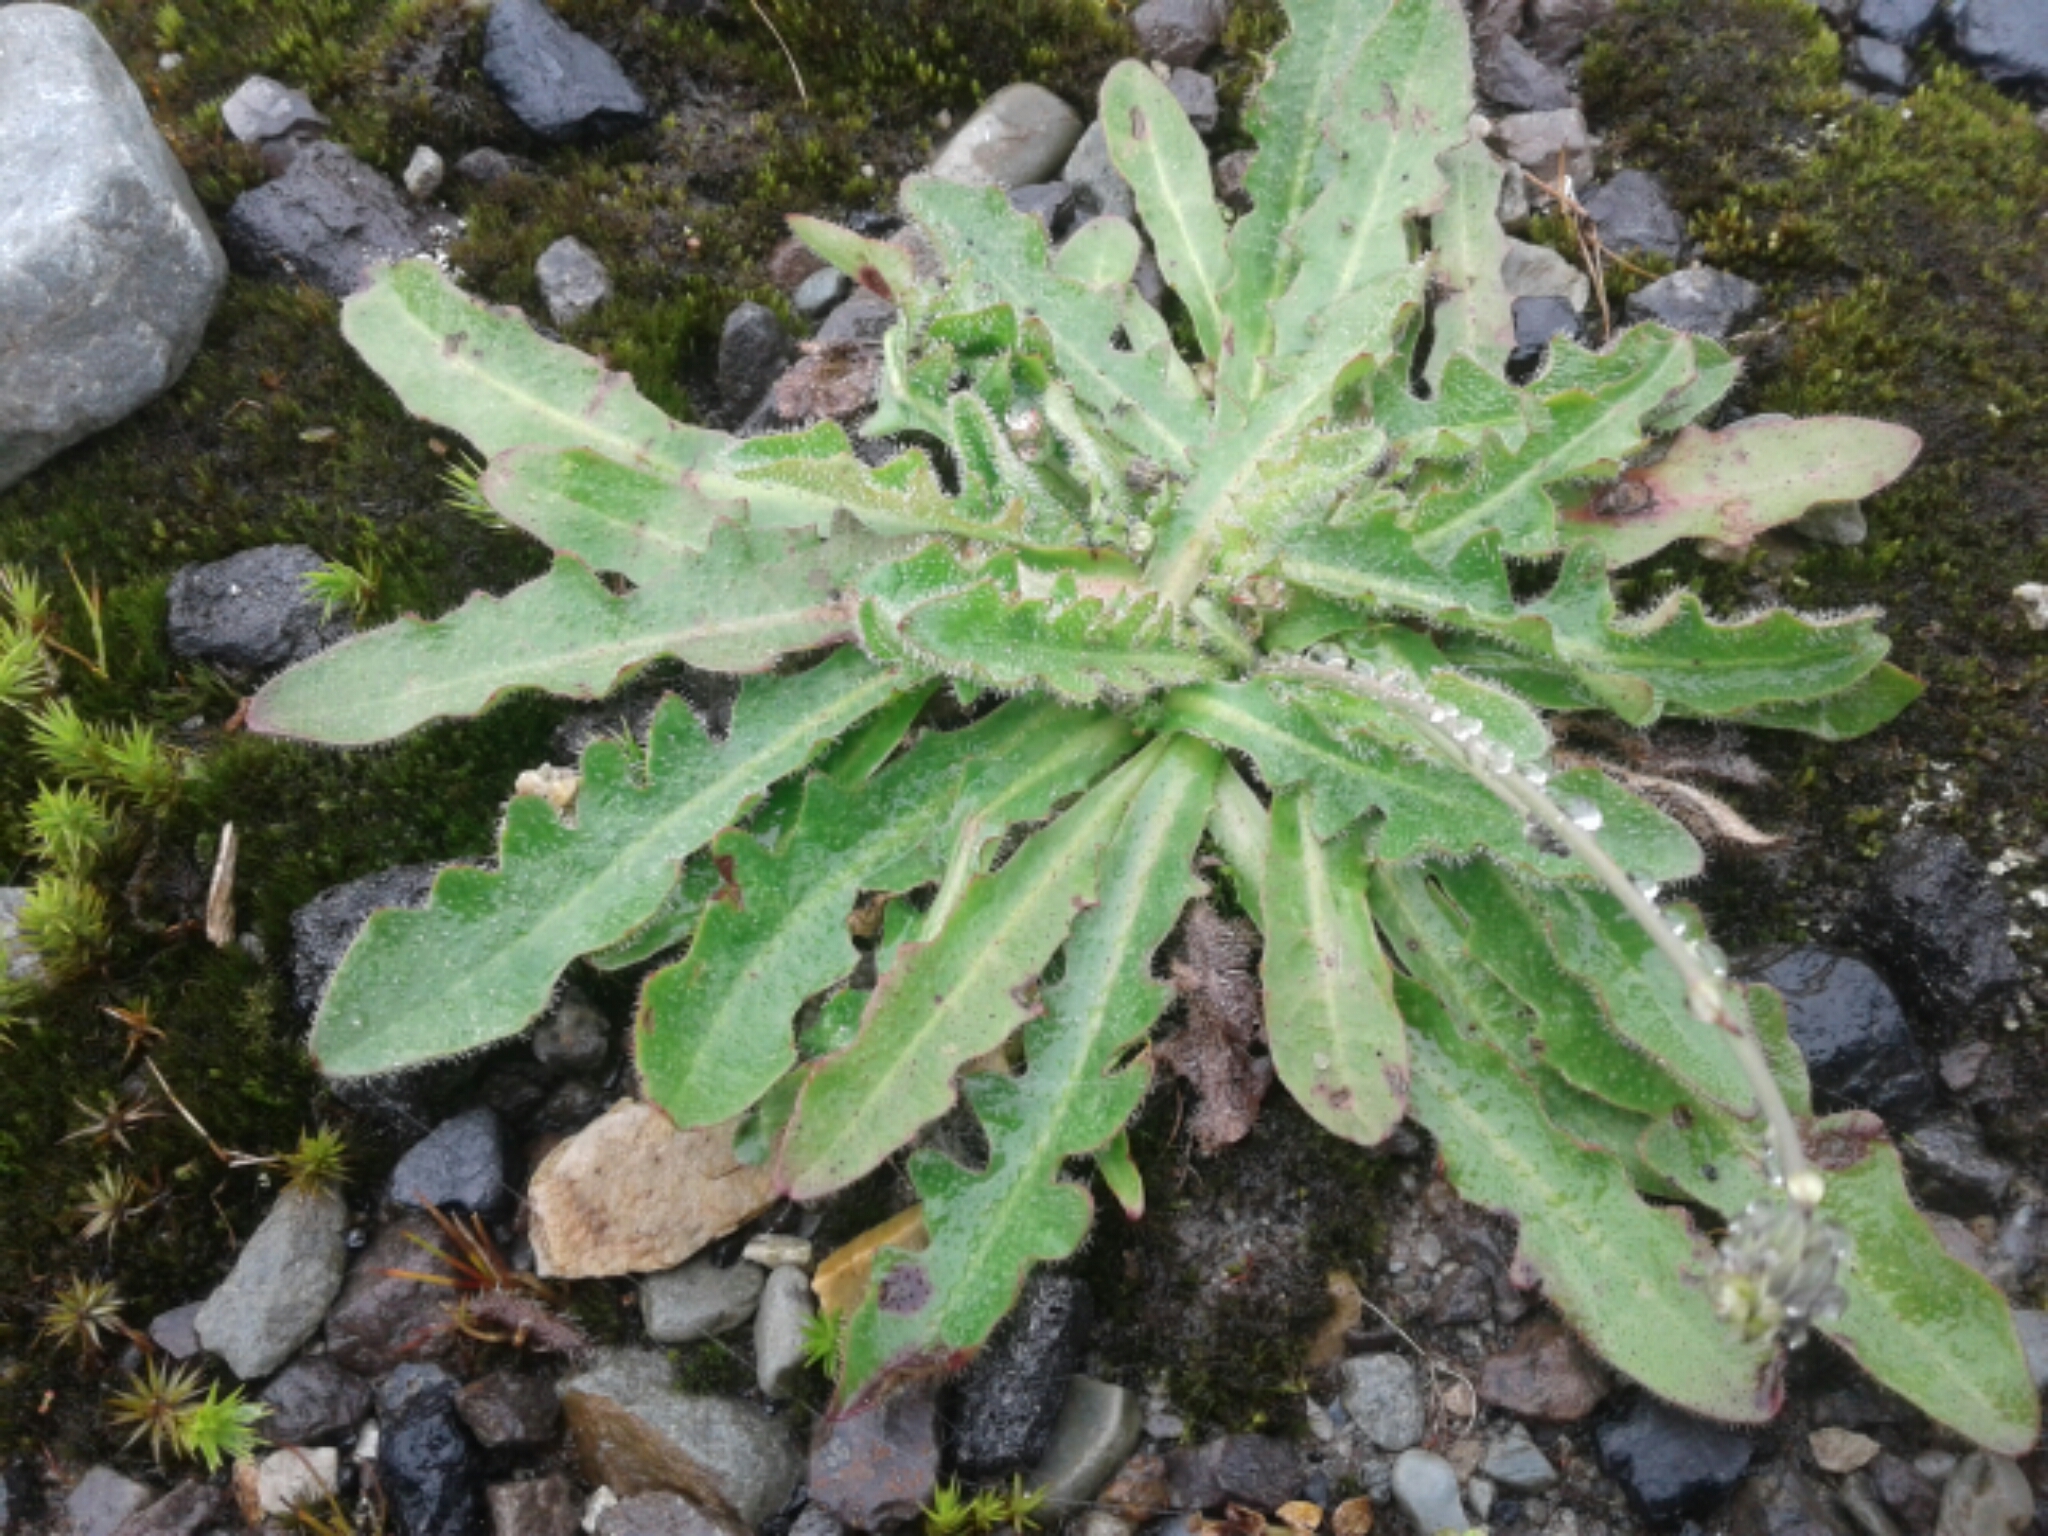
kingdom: Plantae
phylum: Tracheophyta
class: Magnoliopsida
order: Asterales
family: Asteraceae
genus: Hypochaeris
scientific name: Hypochaeris radicata
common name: Flatweed
